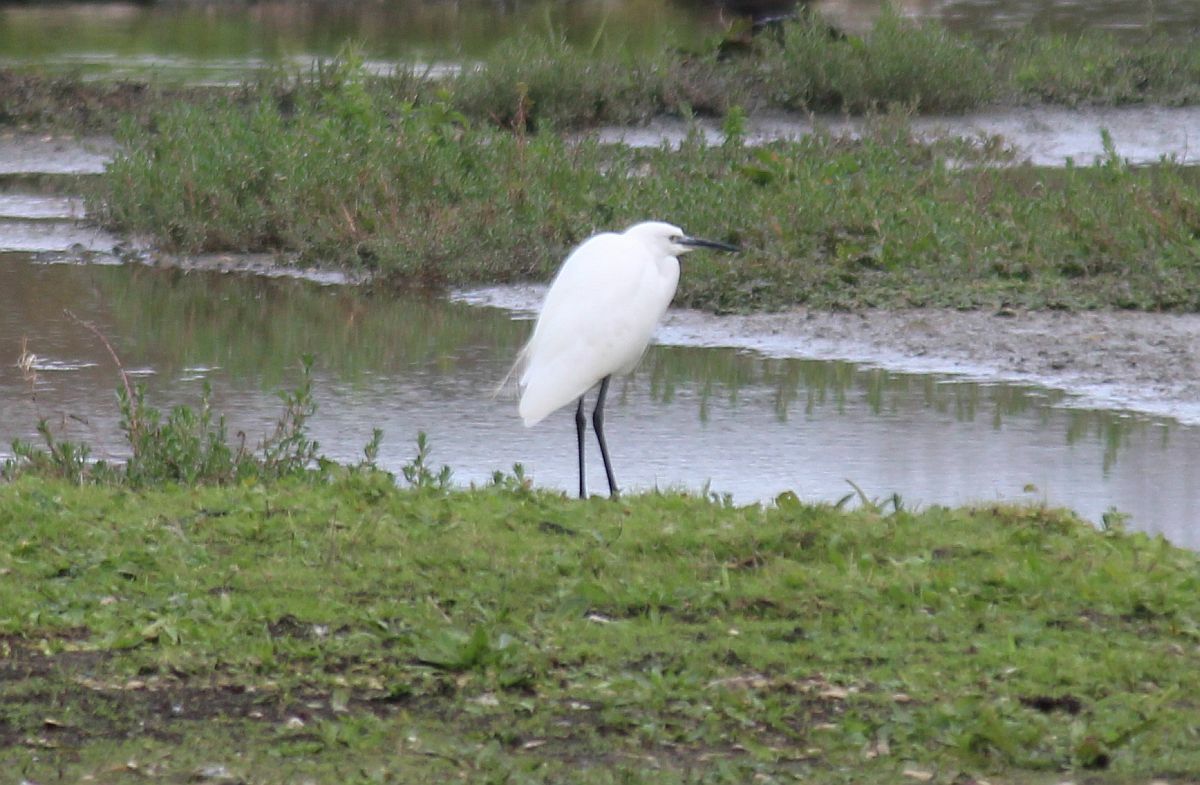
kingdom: Animalia
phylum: Chordata
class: Aves
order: Pelecaniformes
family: Ardeidae
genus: Egretta
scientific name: Egretta garzetta
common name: Little egret
